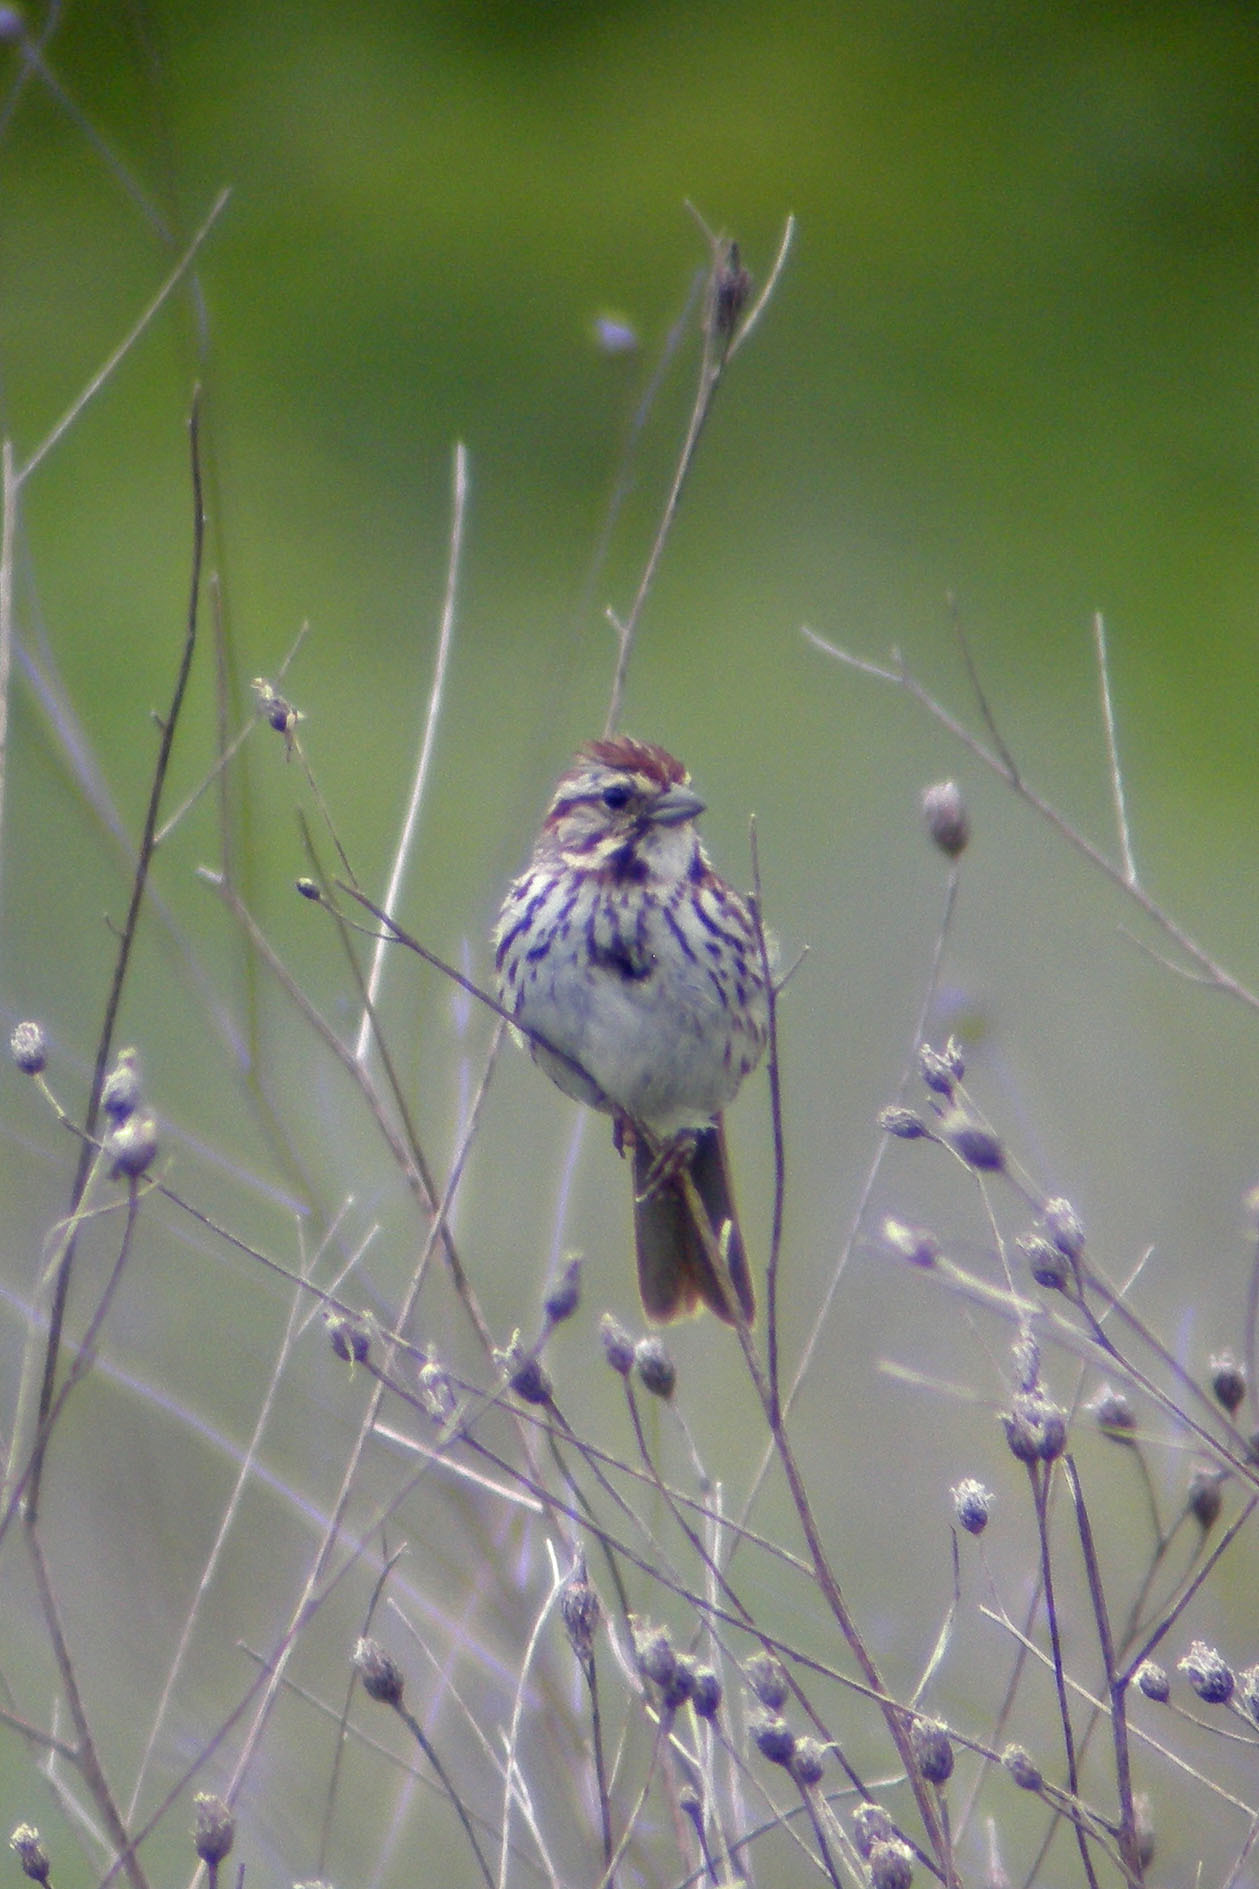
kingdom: Animalia
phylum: Chordata
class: Aves
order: Passeriformes
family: Passerellidae
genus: Melospiza
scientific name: Melospiza melodia
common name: Song sparrow
